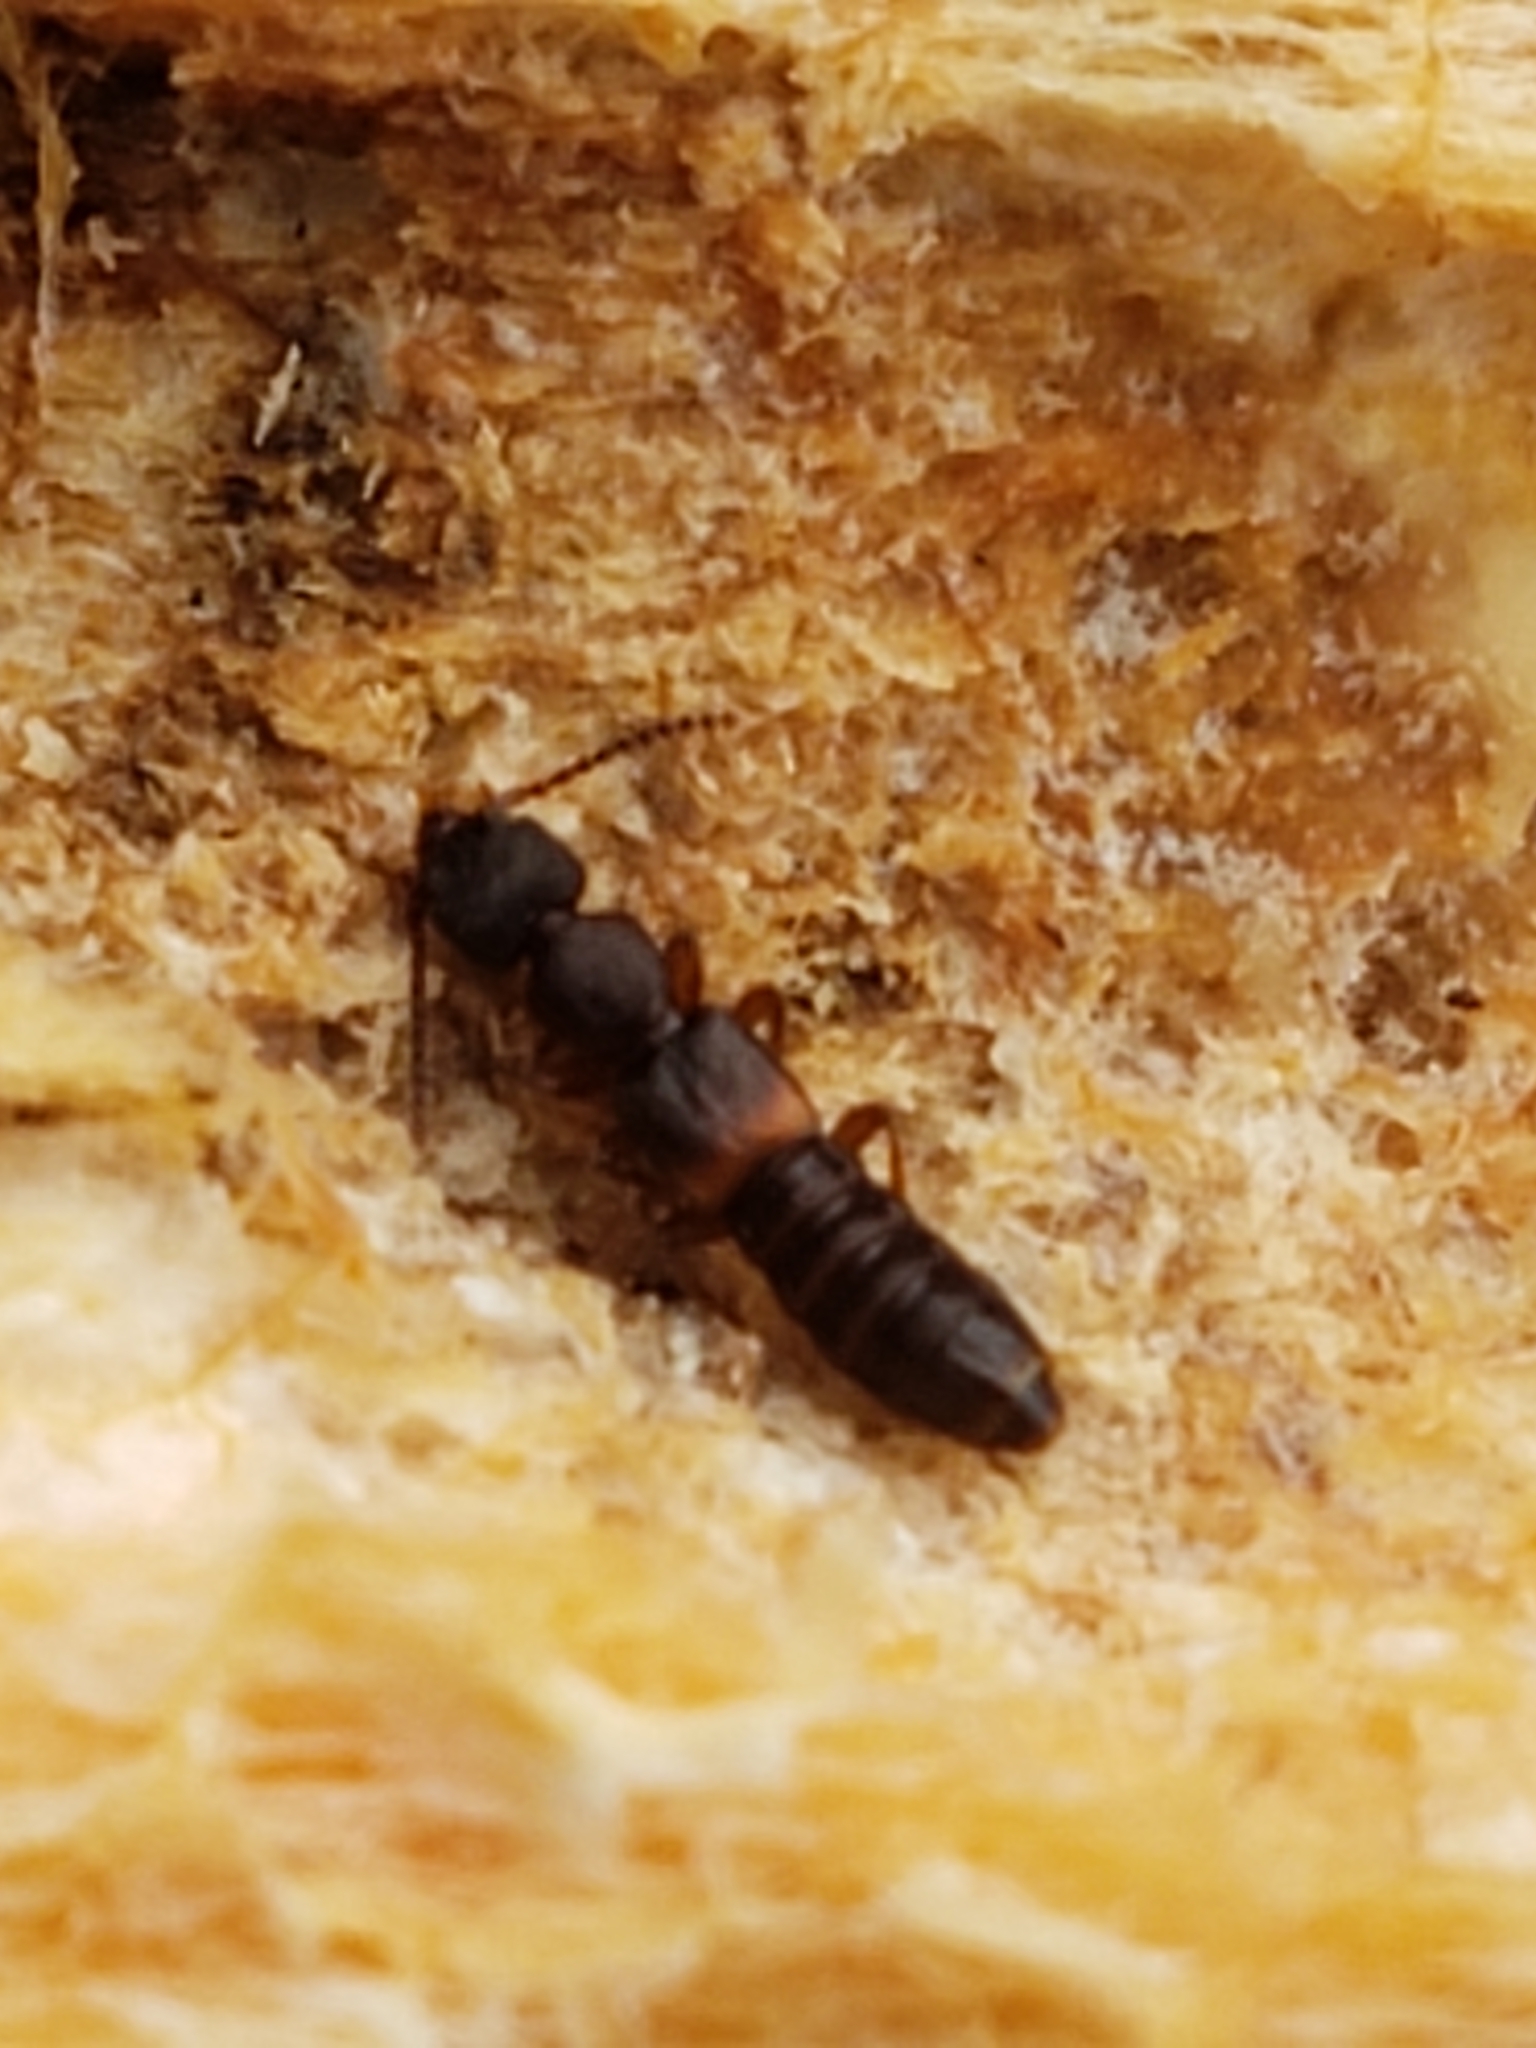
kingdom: Animalia
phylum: Arthropoda
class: Insecta
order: Coleoptera
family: Staphylinidae
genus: Sunius
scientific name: Sunius confluentus
